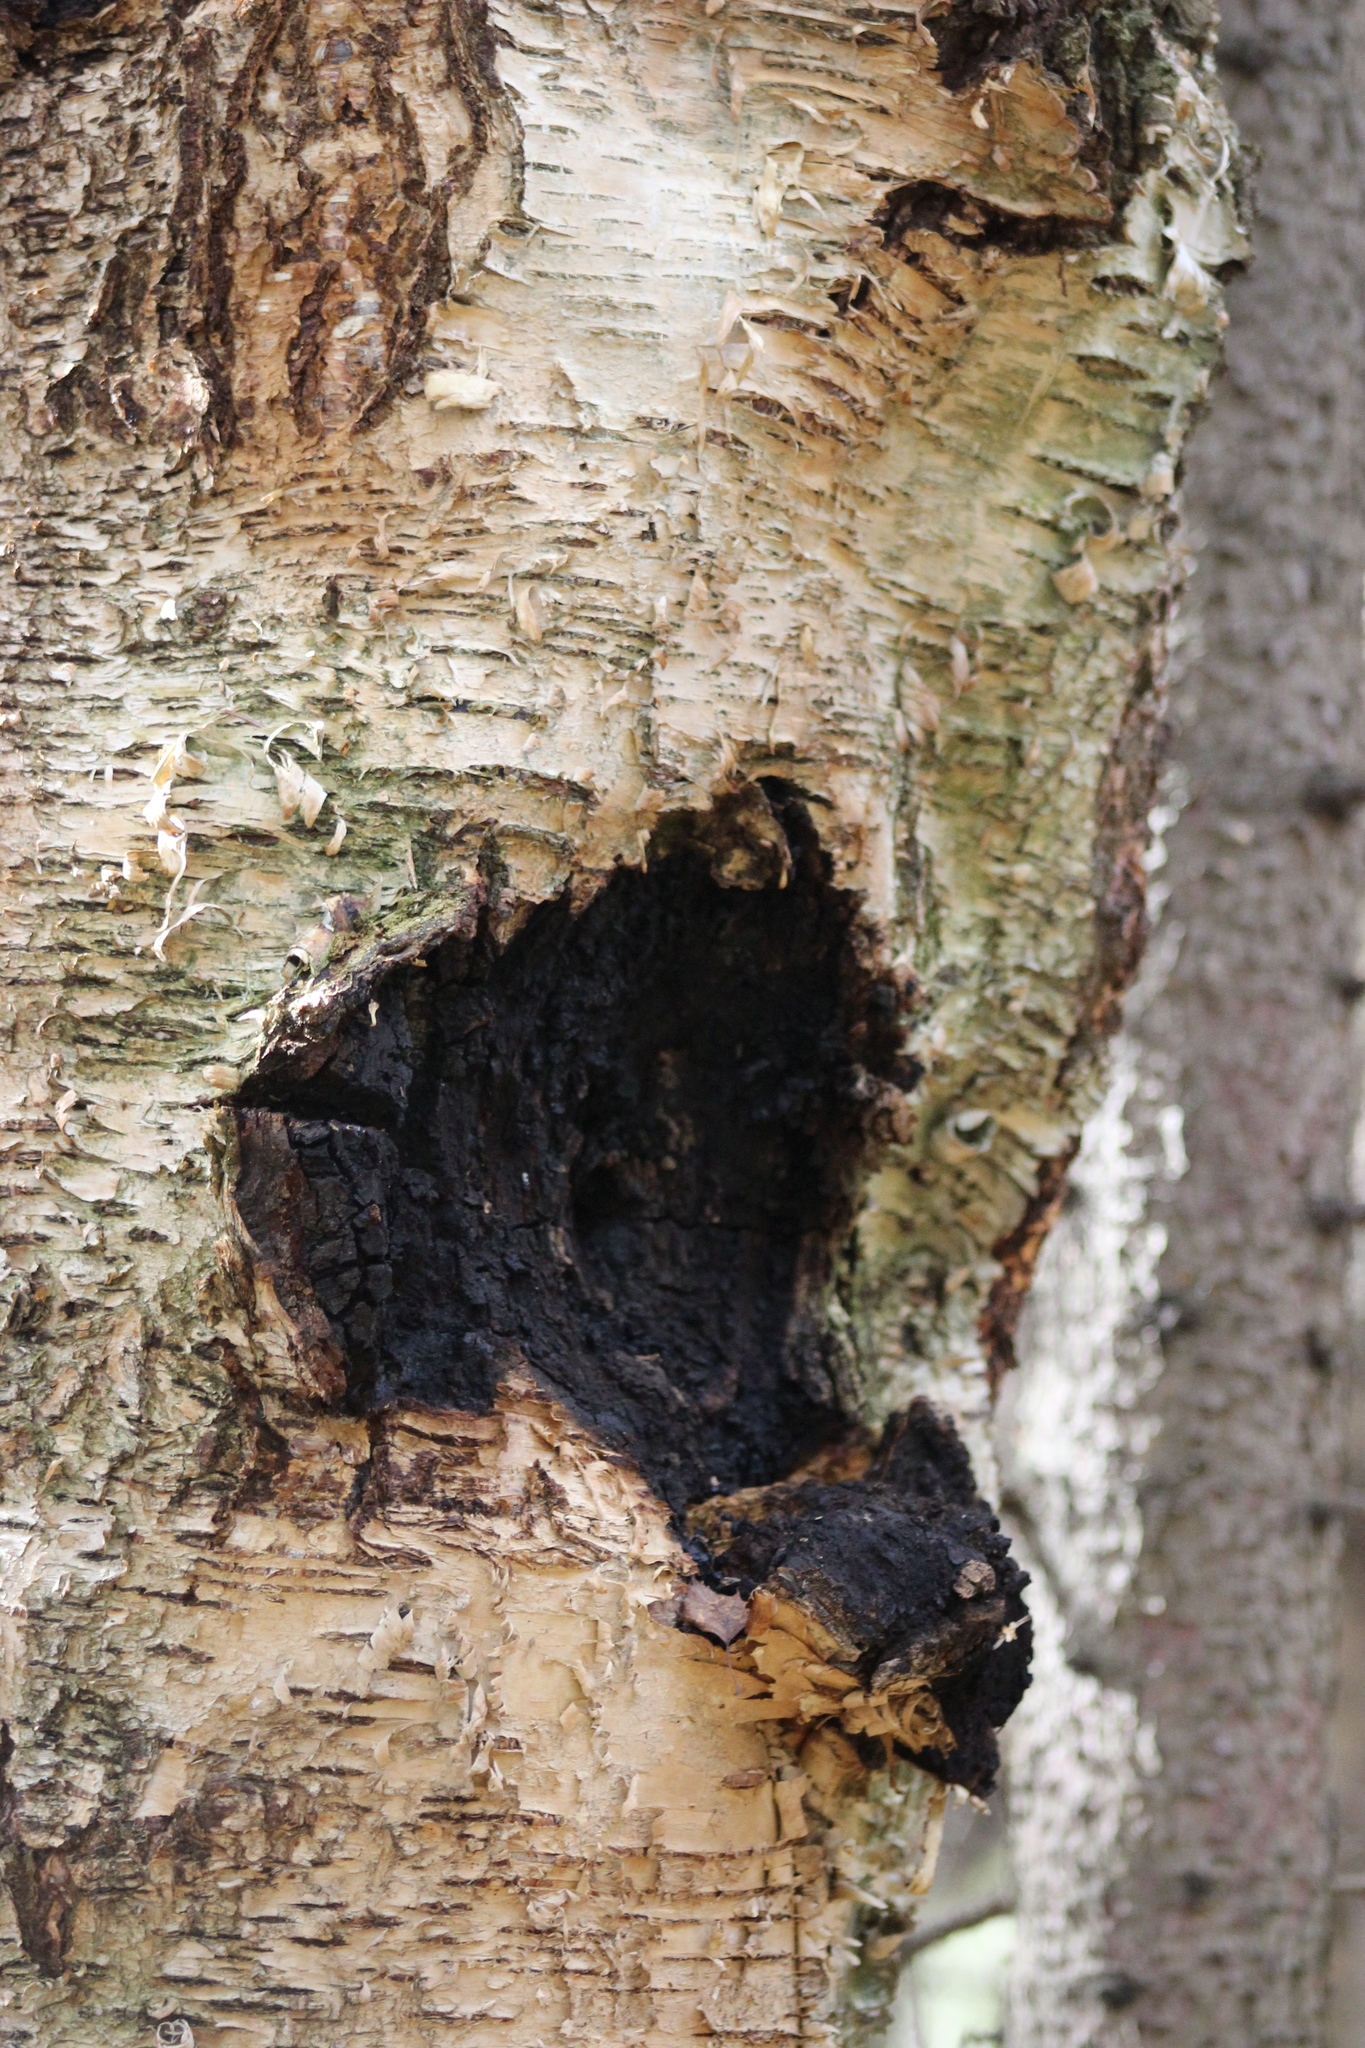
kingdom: Fungi
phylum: Basidiomycota
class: Agaricomycetes
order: Hymenochaetales
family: Hymenochaetaceae
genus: Inonotus
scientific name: Inonotus obliquus
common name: Chaga
